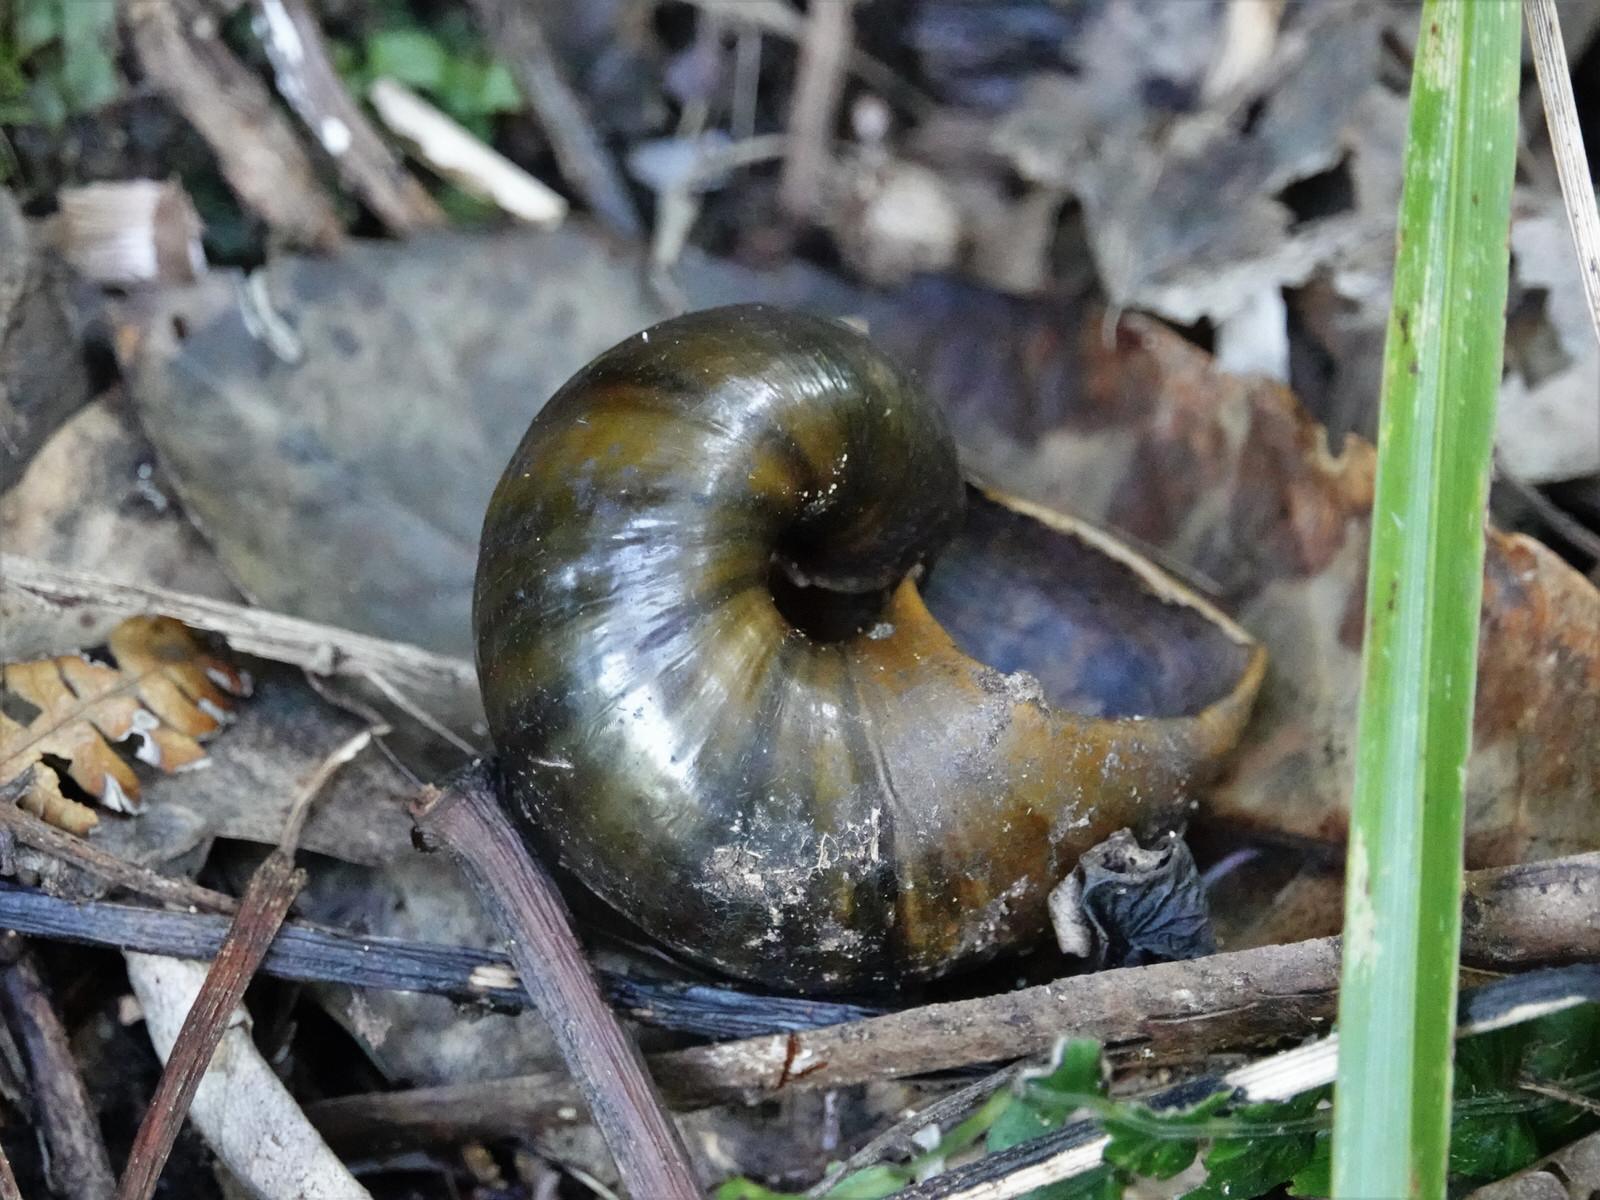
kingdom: Animalia
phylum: Mollusca
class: Gastropoda
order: Stylommatophora
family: Rhytididae
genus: Paryphanta
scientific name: Paryphanta busbyi
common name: Kauri snail
